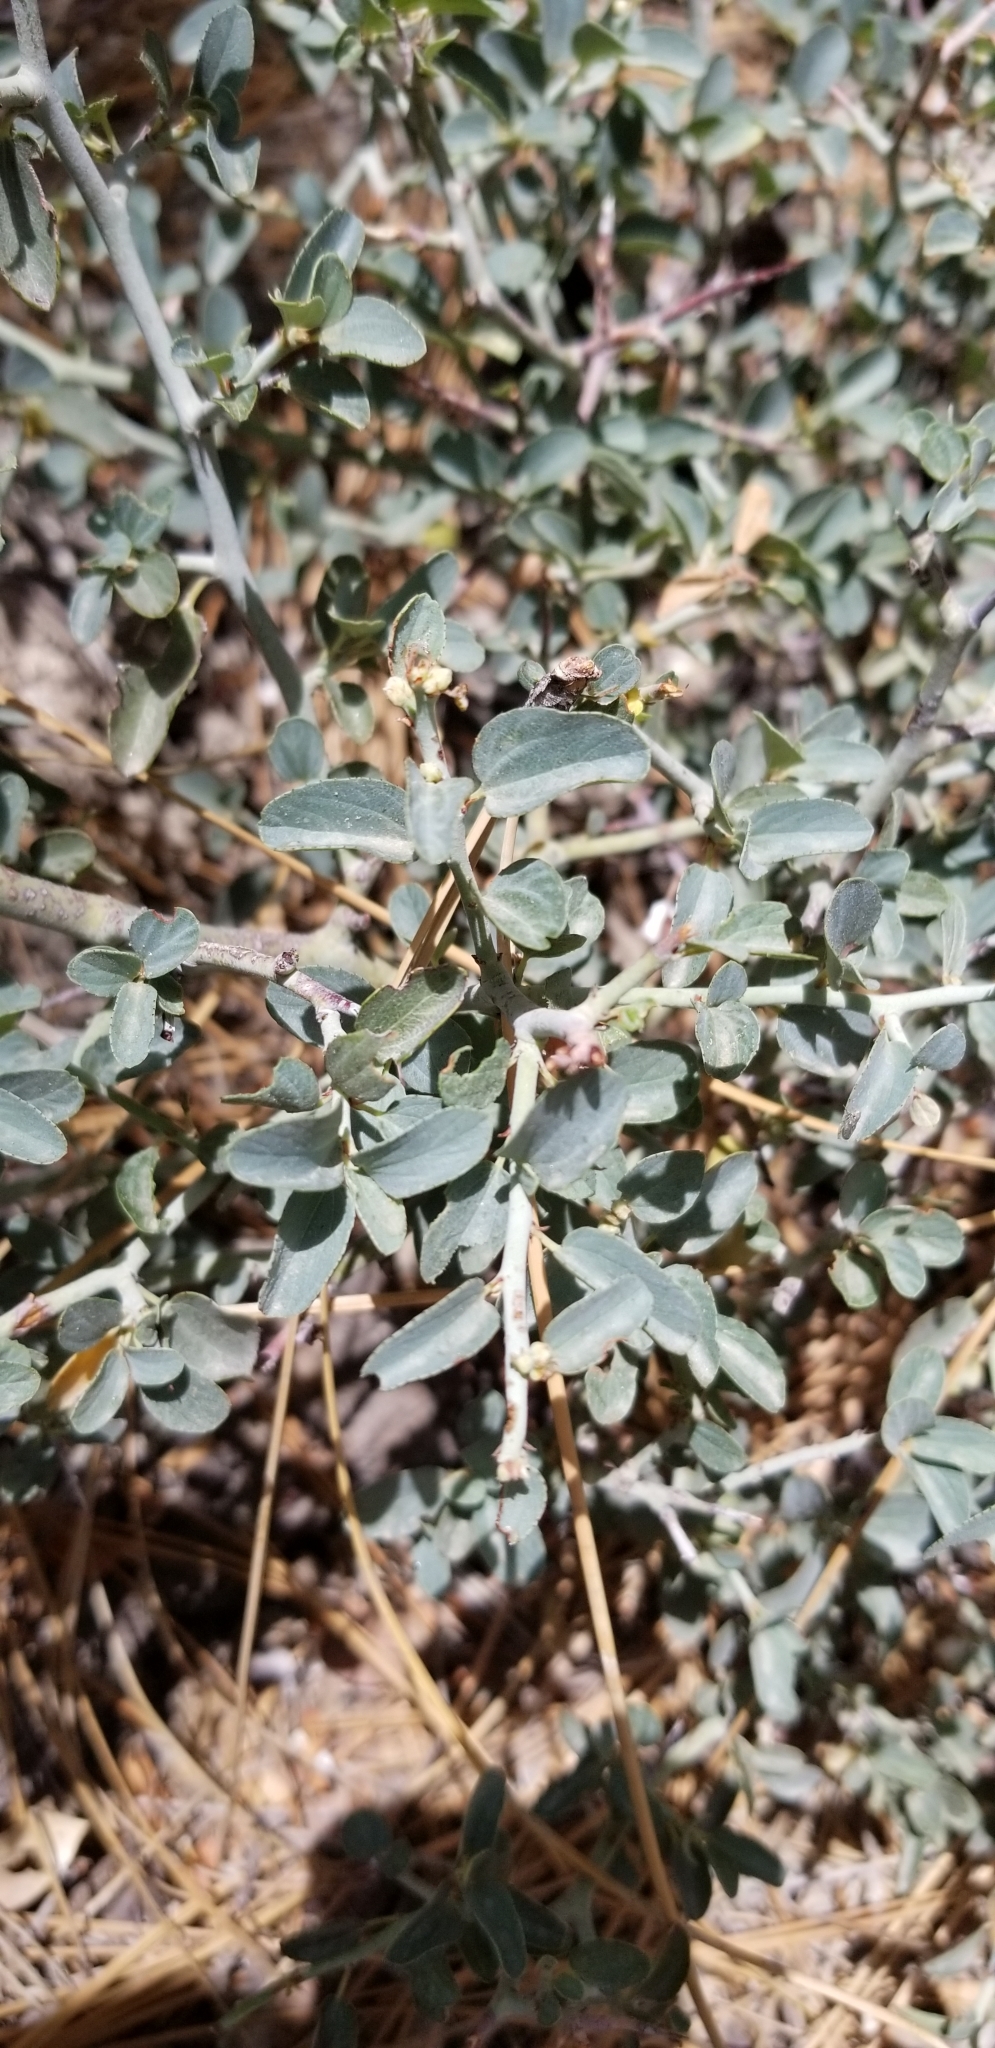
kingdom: Plantae
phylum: Tracheophyta
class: Magnoliopsida
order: Rosales
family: Rhamnaceae
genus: Ceanothus
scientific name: Ceanothus cordulatus
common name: Mountain whitethorn
